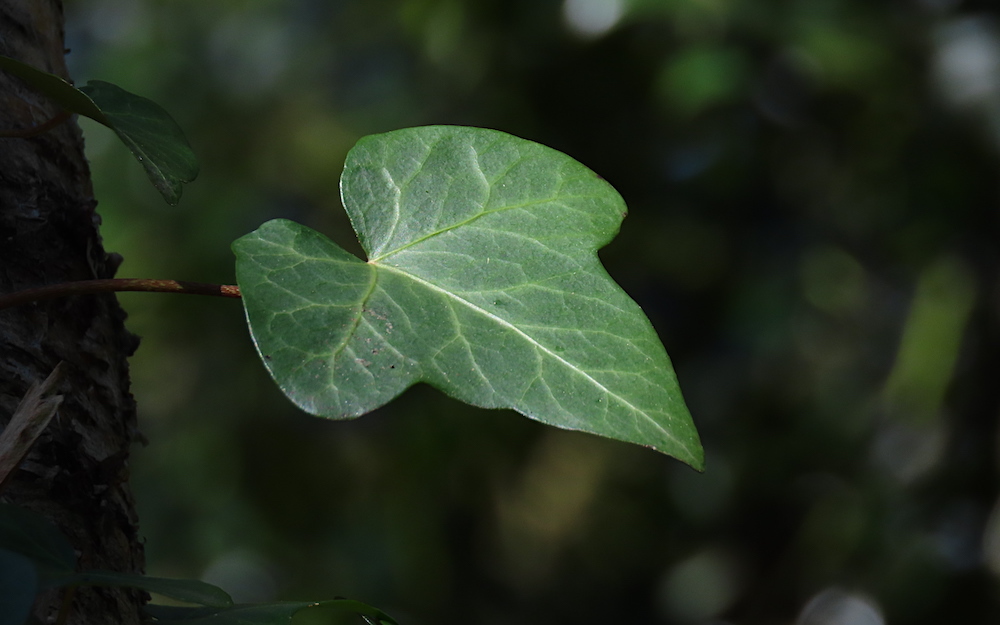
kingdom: Plantae
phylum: Tracheophyta
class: Magnoliopsida
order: Apiales
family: Araliaceae
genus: Hedera
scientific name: Hedera helix
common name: Ivy
